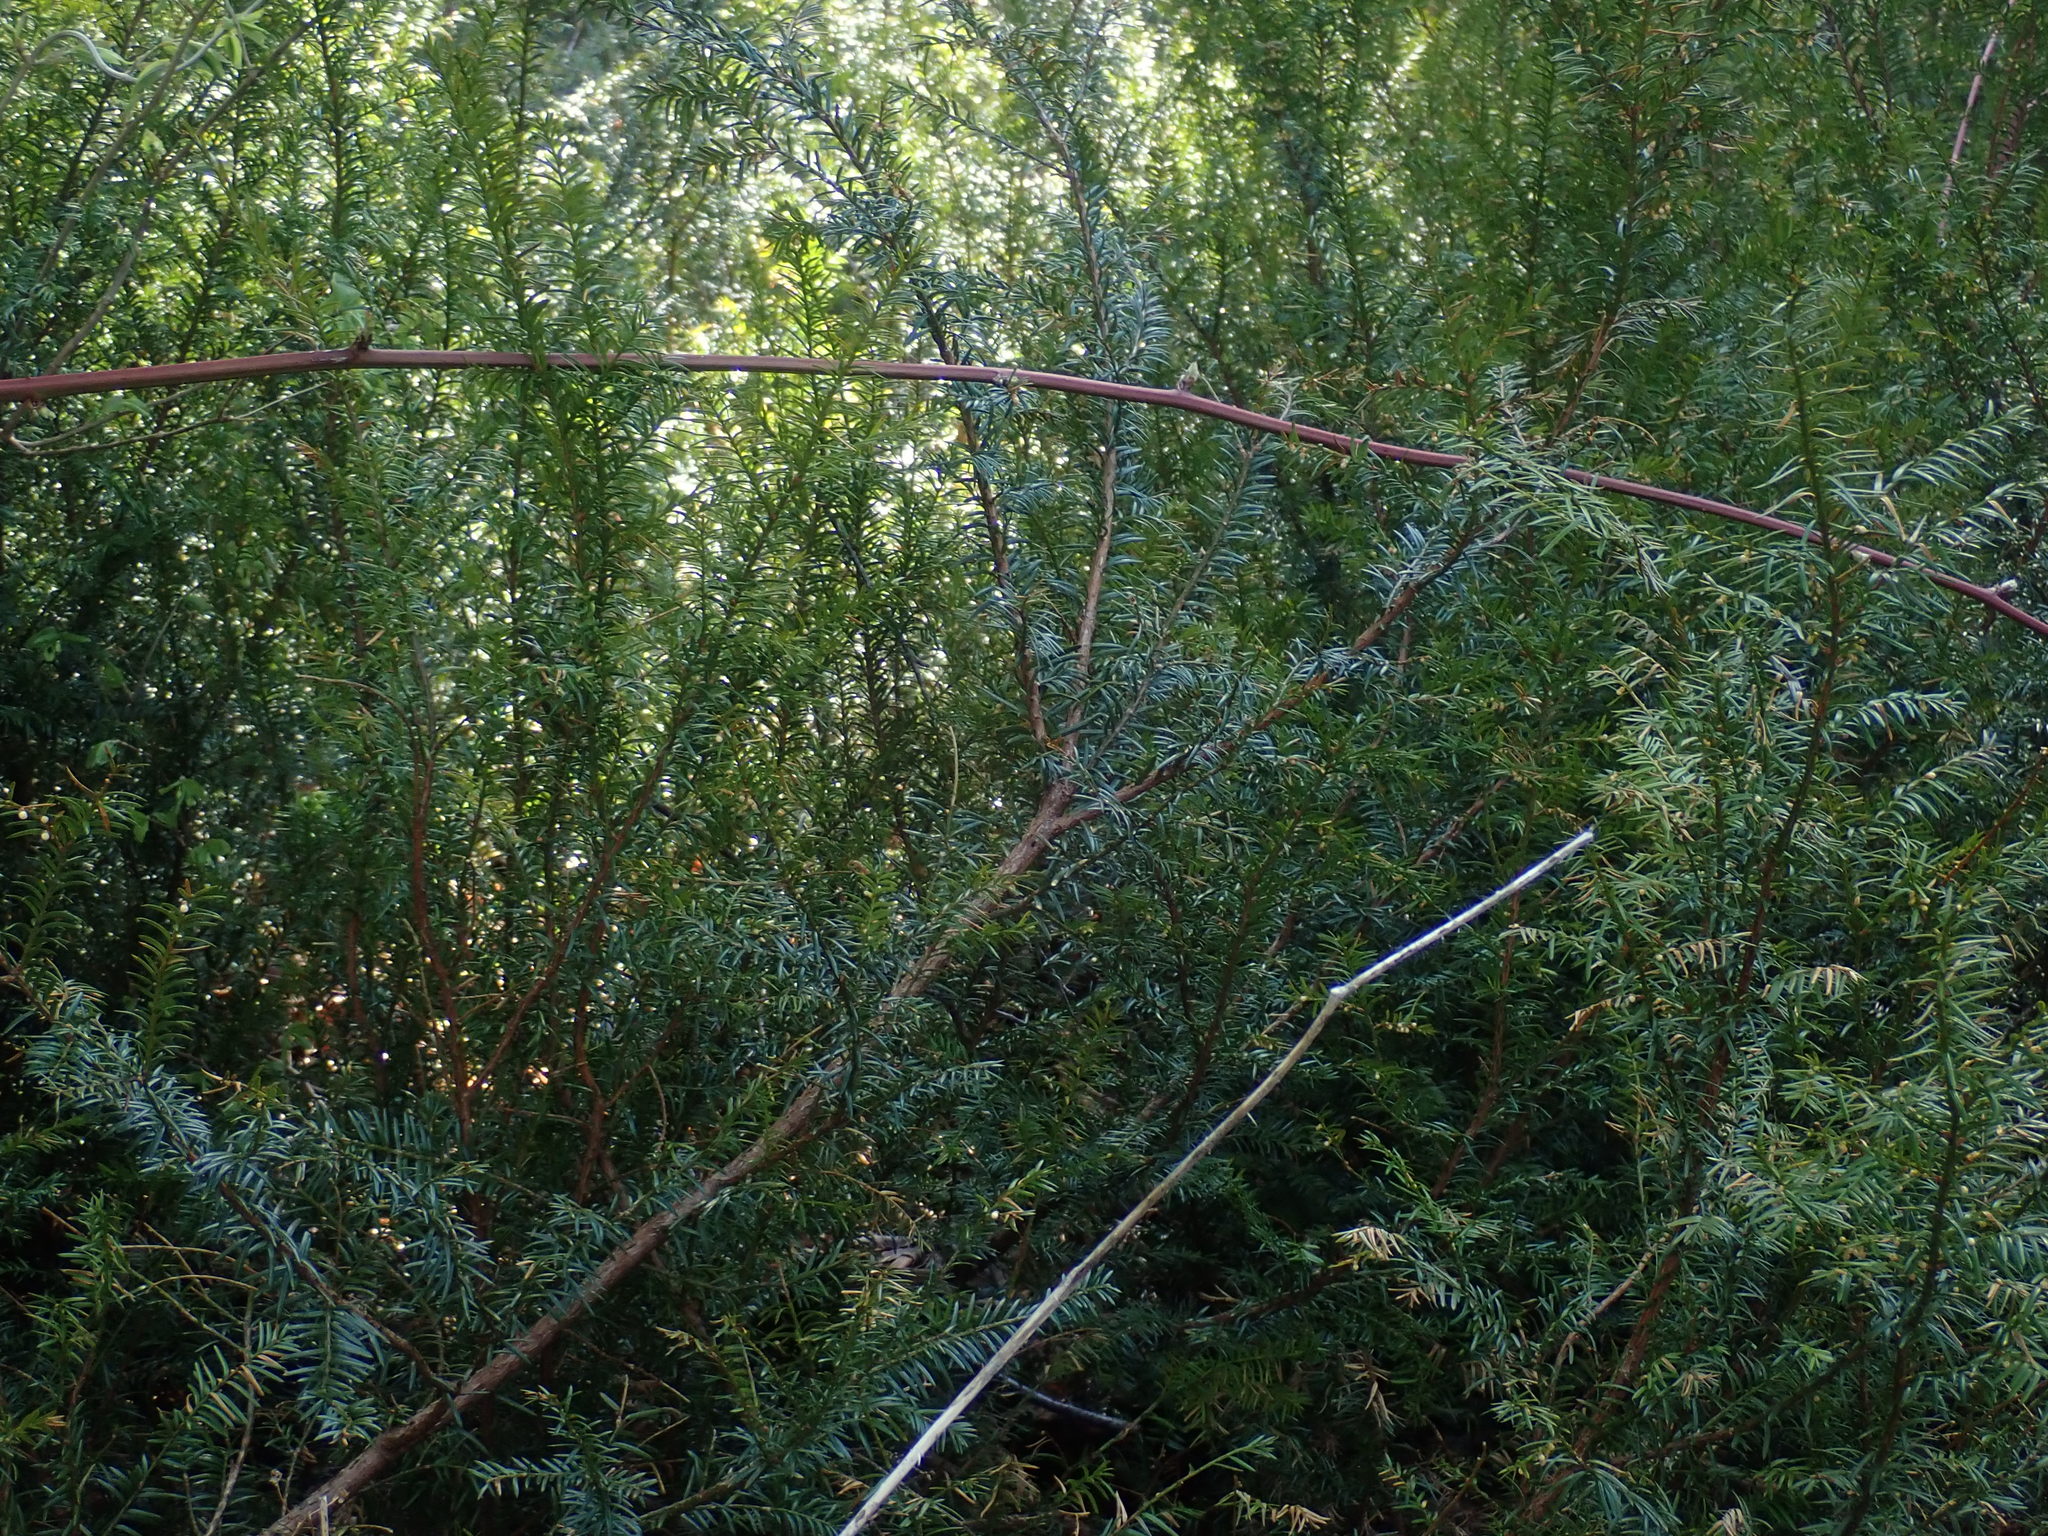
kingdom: Plantae
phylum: Tracheophyta
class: Pinopsida
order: Pinales
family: Taxaceae
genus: Taxus
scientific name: Taxus canadensis
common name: American yew
